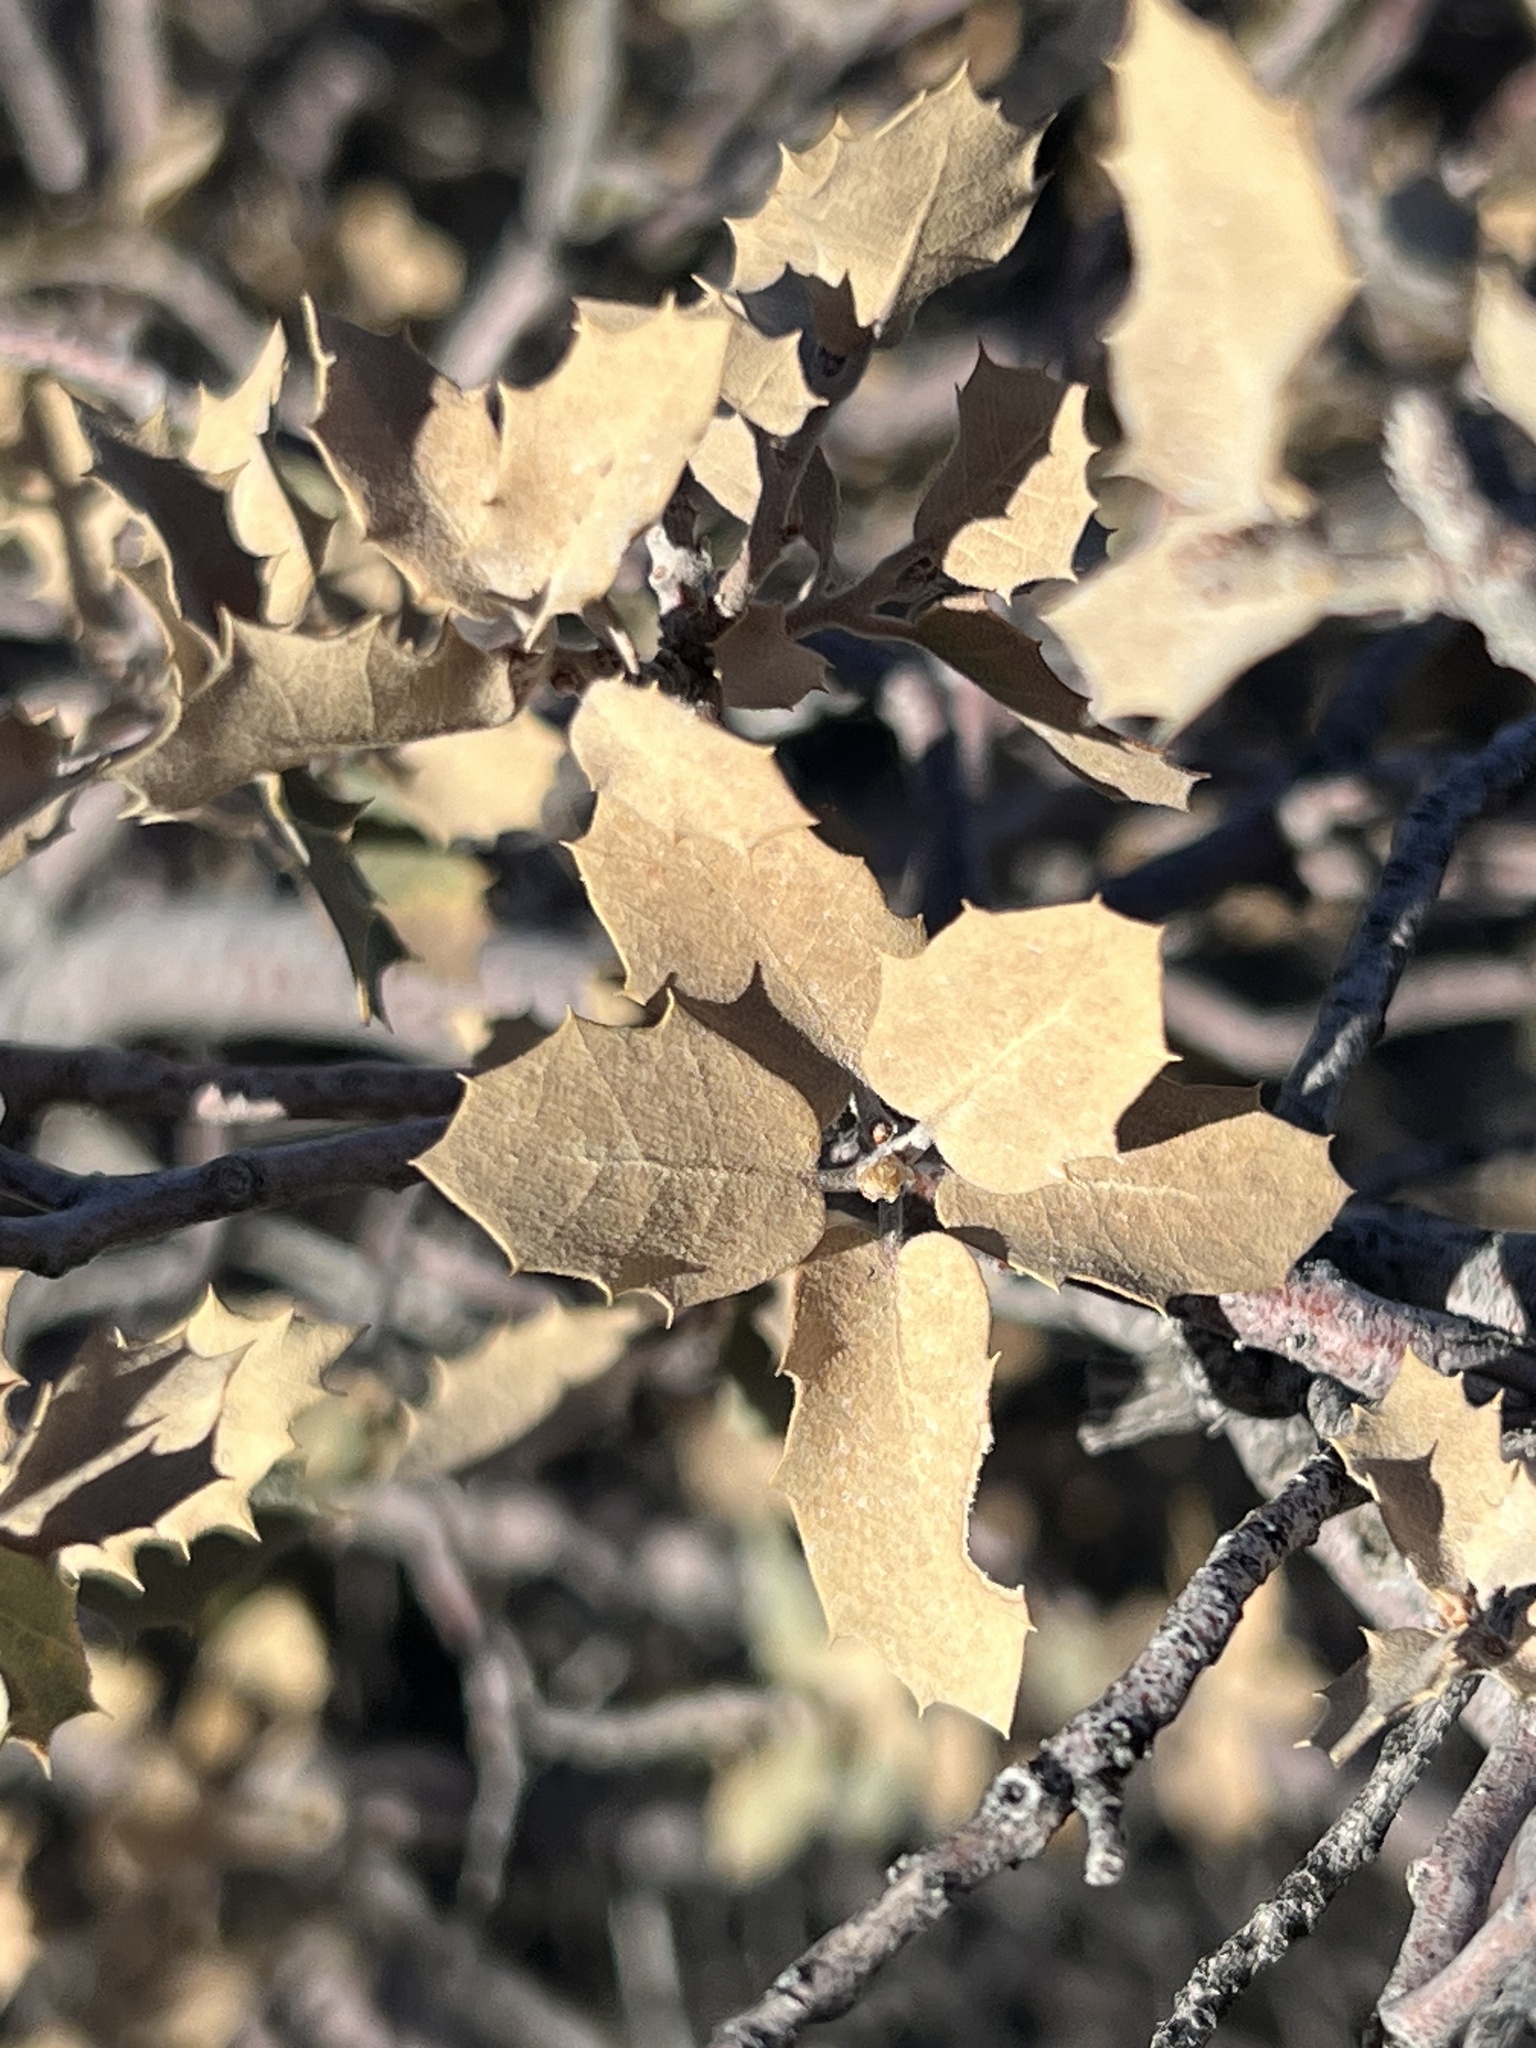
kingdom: Plantae
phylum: Tracheophyta
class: Magnoliopsida
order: Fagales
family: Fagaceae
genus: Quercus
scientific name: Quercus turbinella
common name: Sonoran scrub oak
